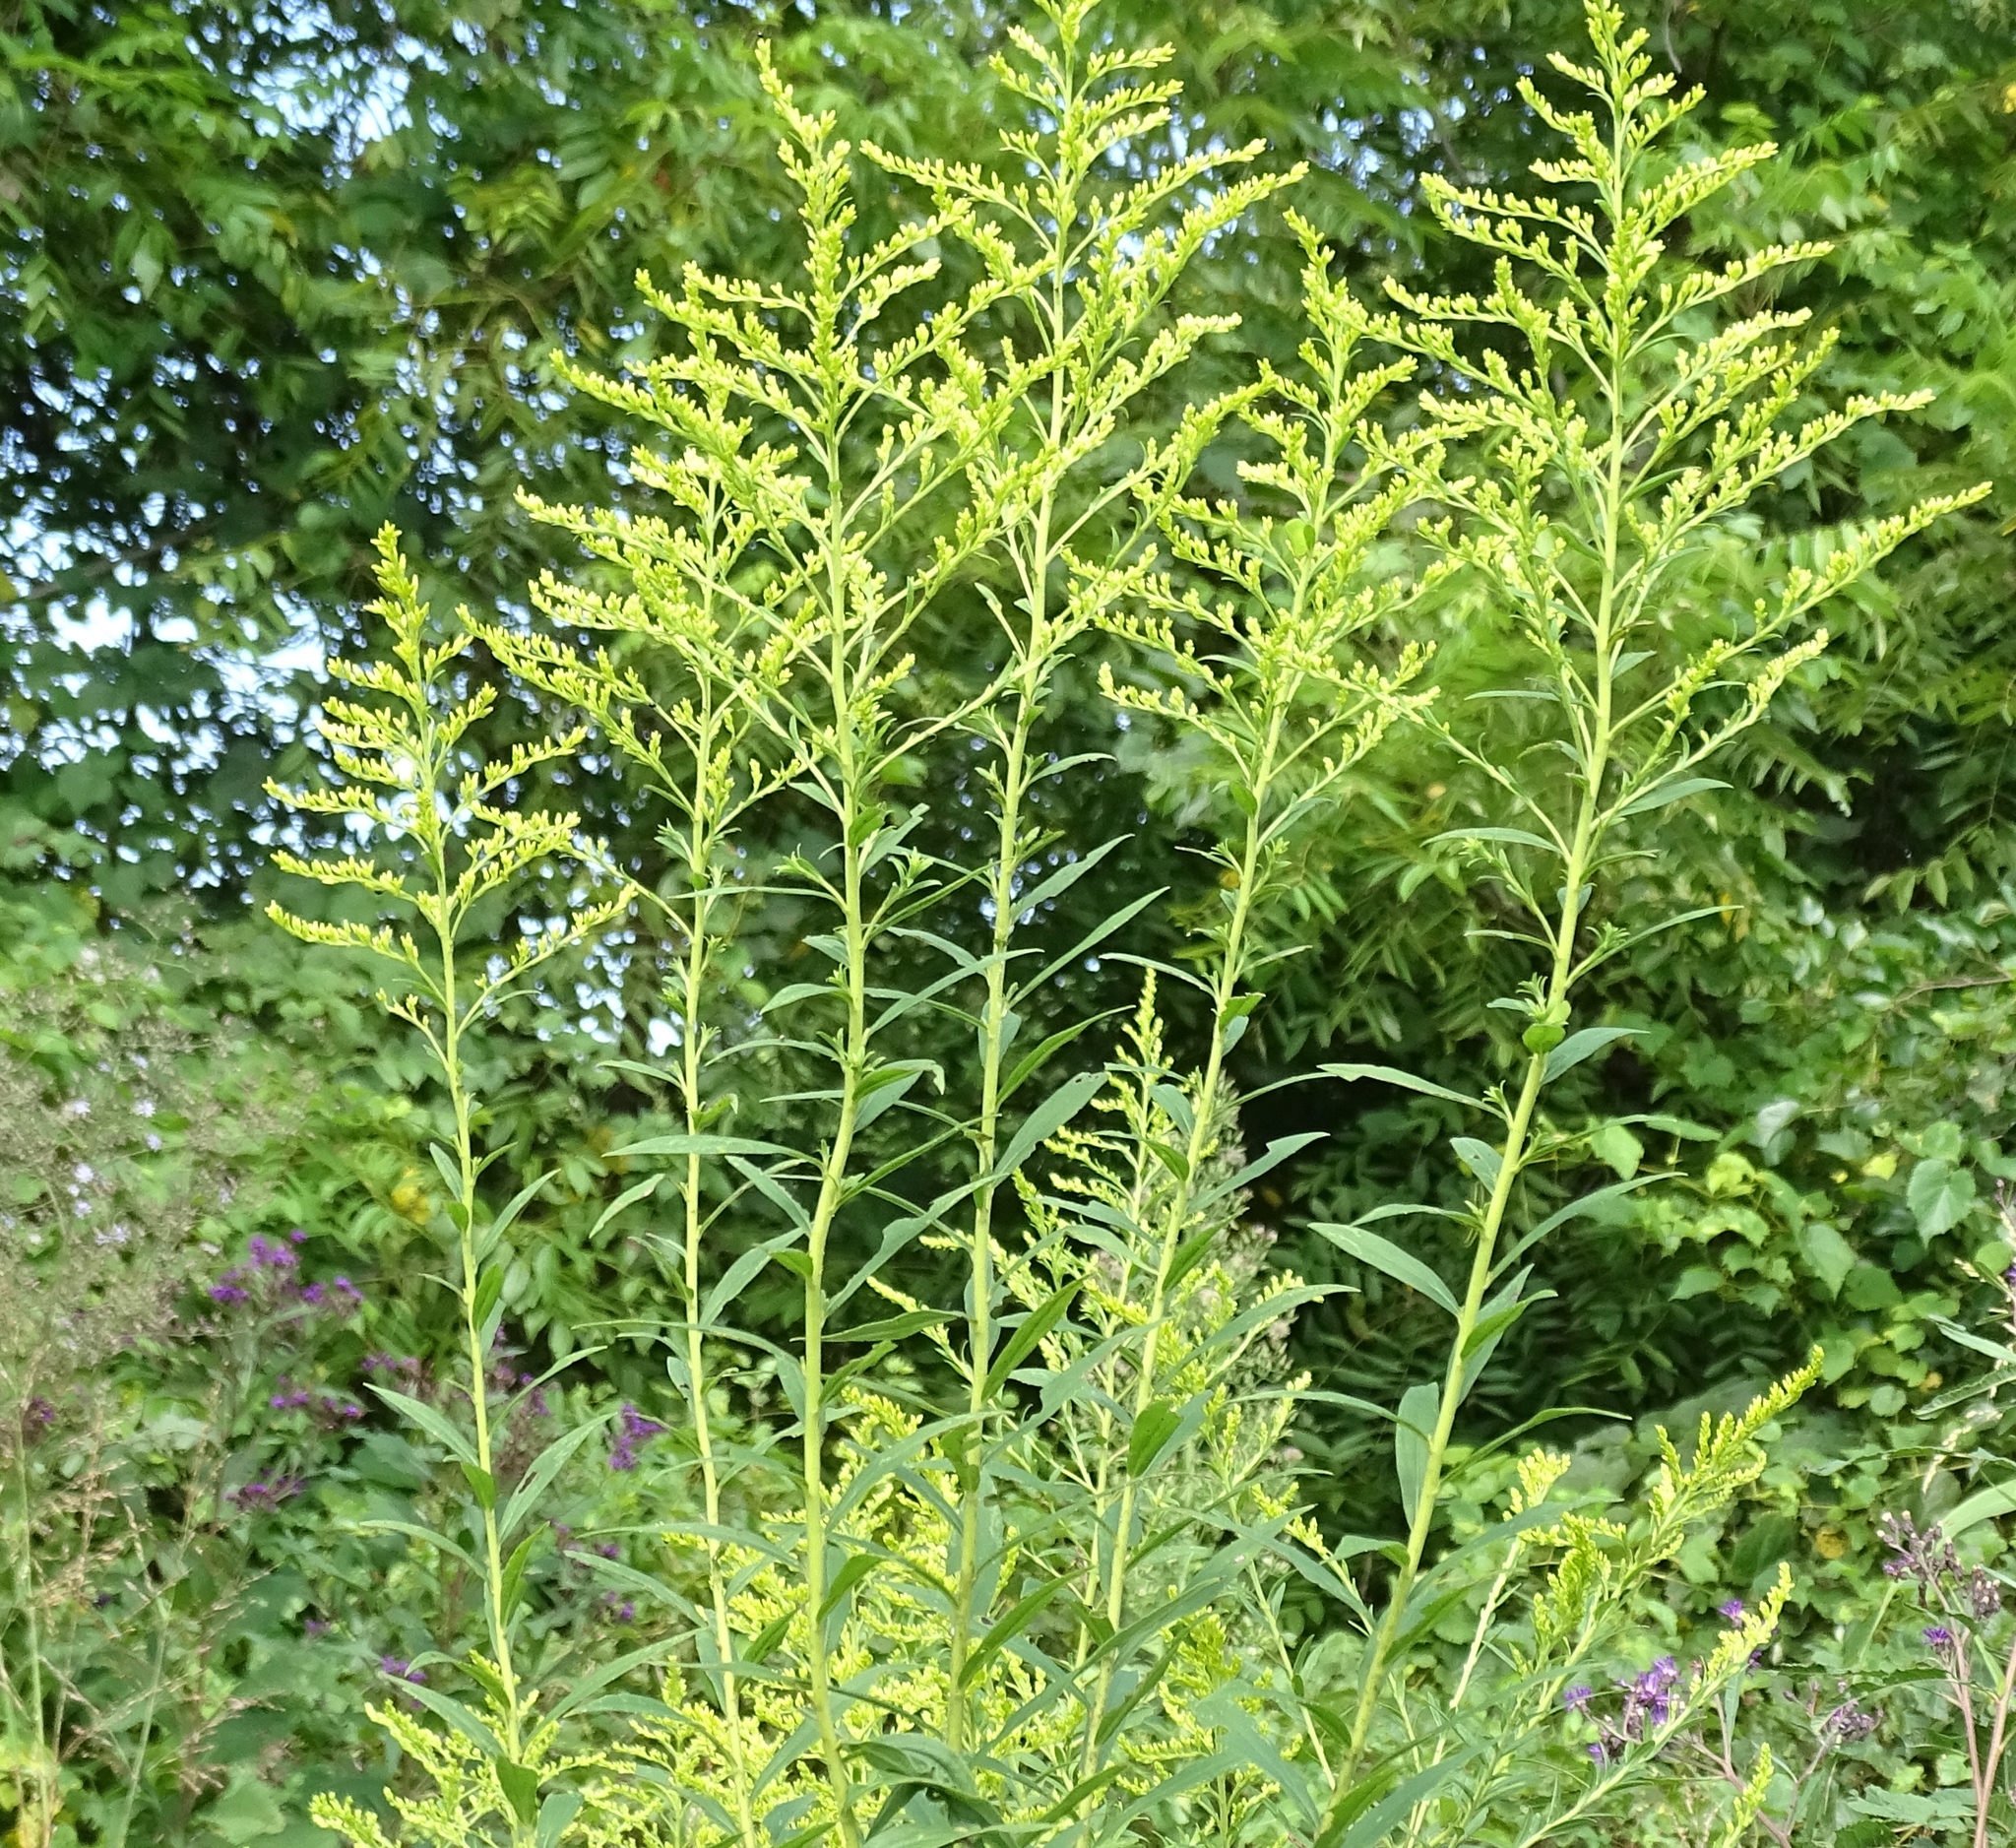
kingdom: Plantae
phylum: Tracheophyta
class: Magnoliopsida
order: Asterales
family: Asteraceae
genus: Solidago
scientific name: Solidago canadensis
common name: Canada goldenrod
